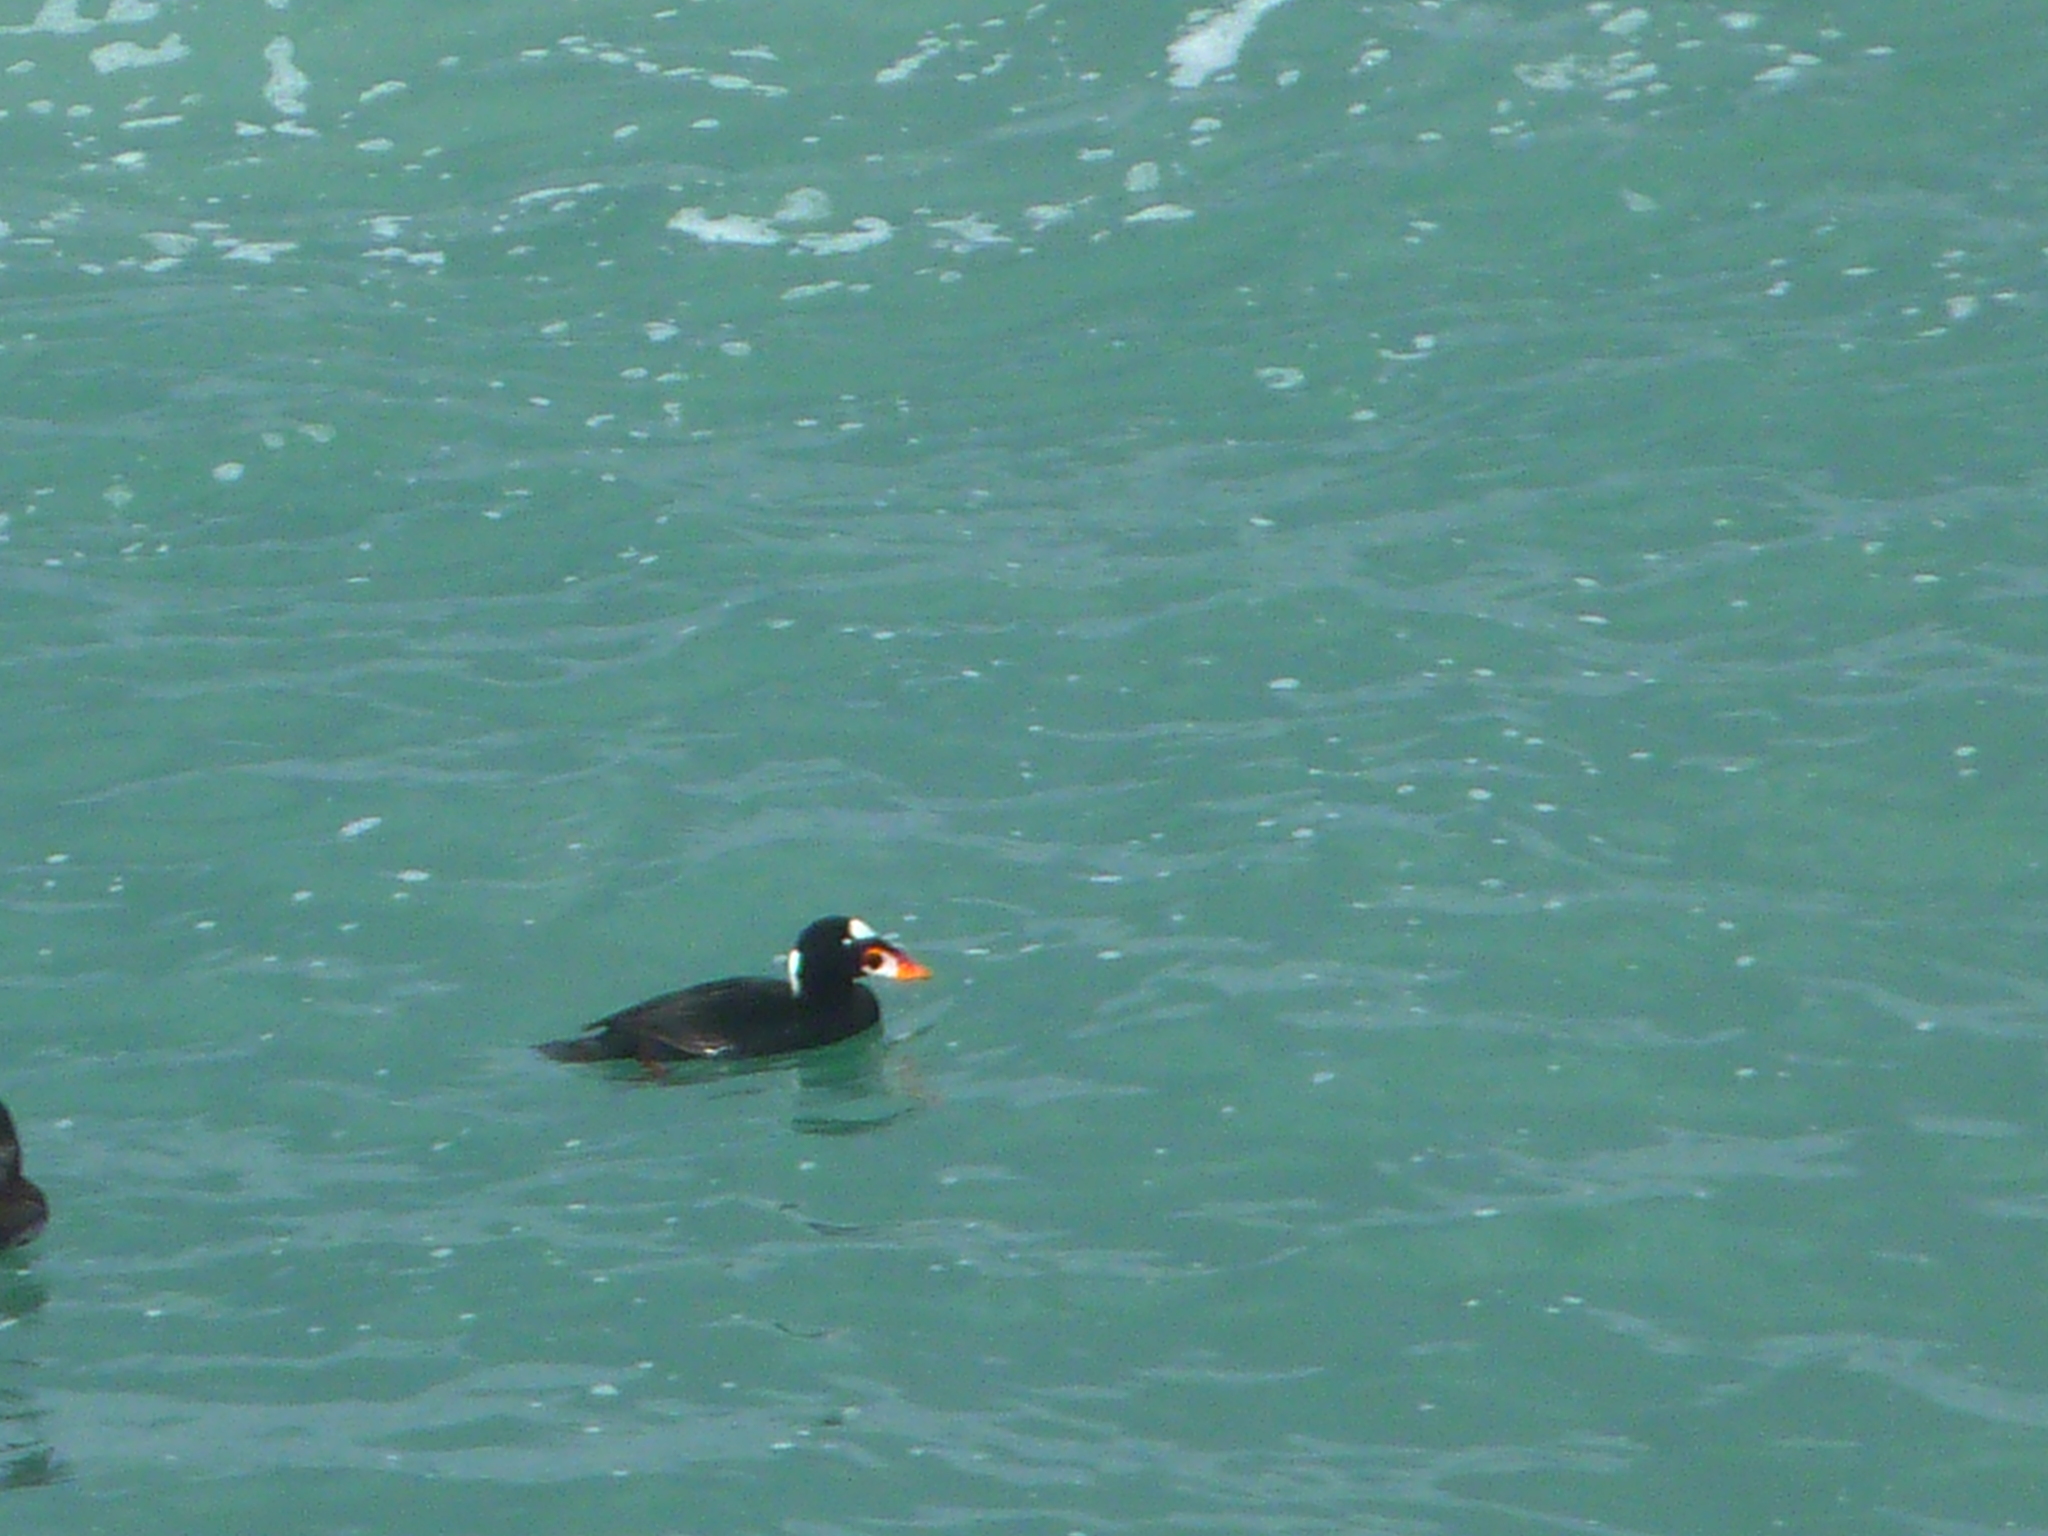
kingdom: Animalia
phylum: Chordata
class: Aves
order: Anseriformes
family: Anatidae
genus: Melanitta
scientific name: Melanitta perspicillata
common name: Surf scoter
